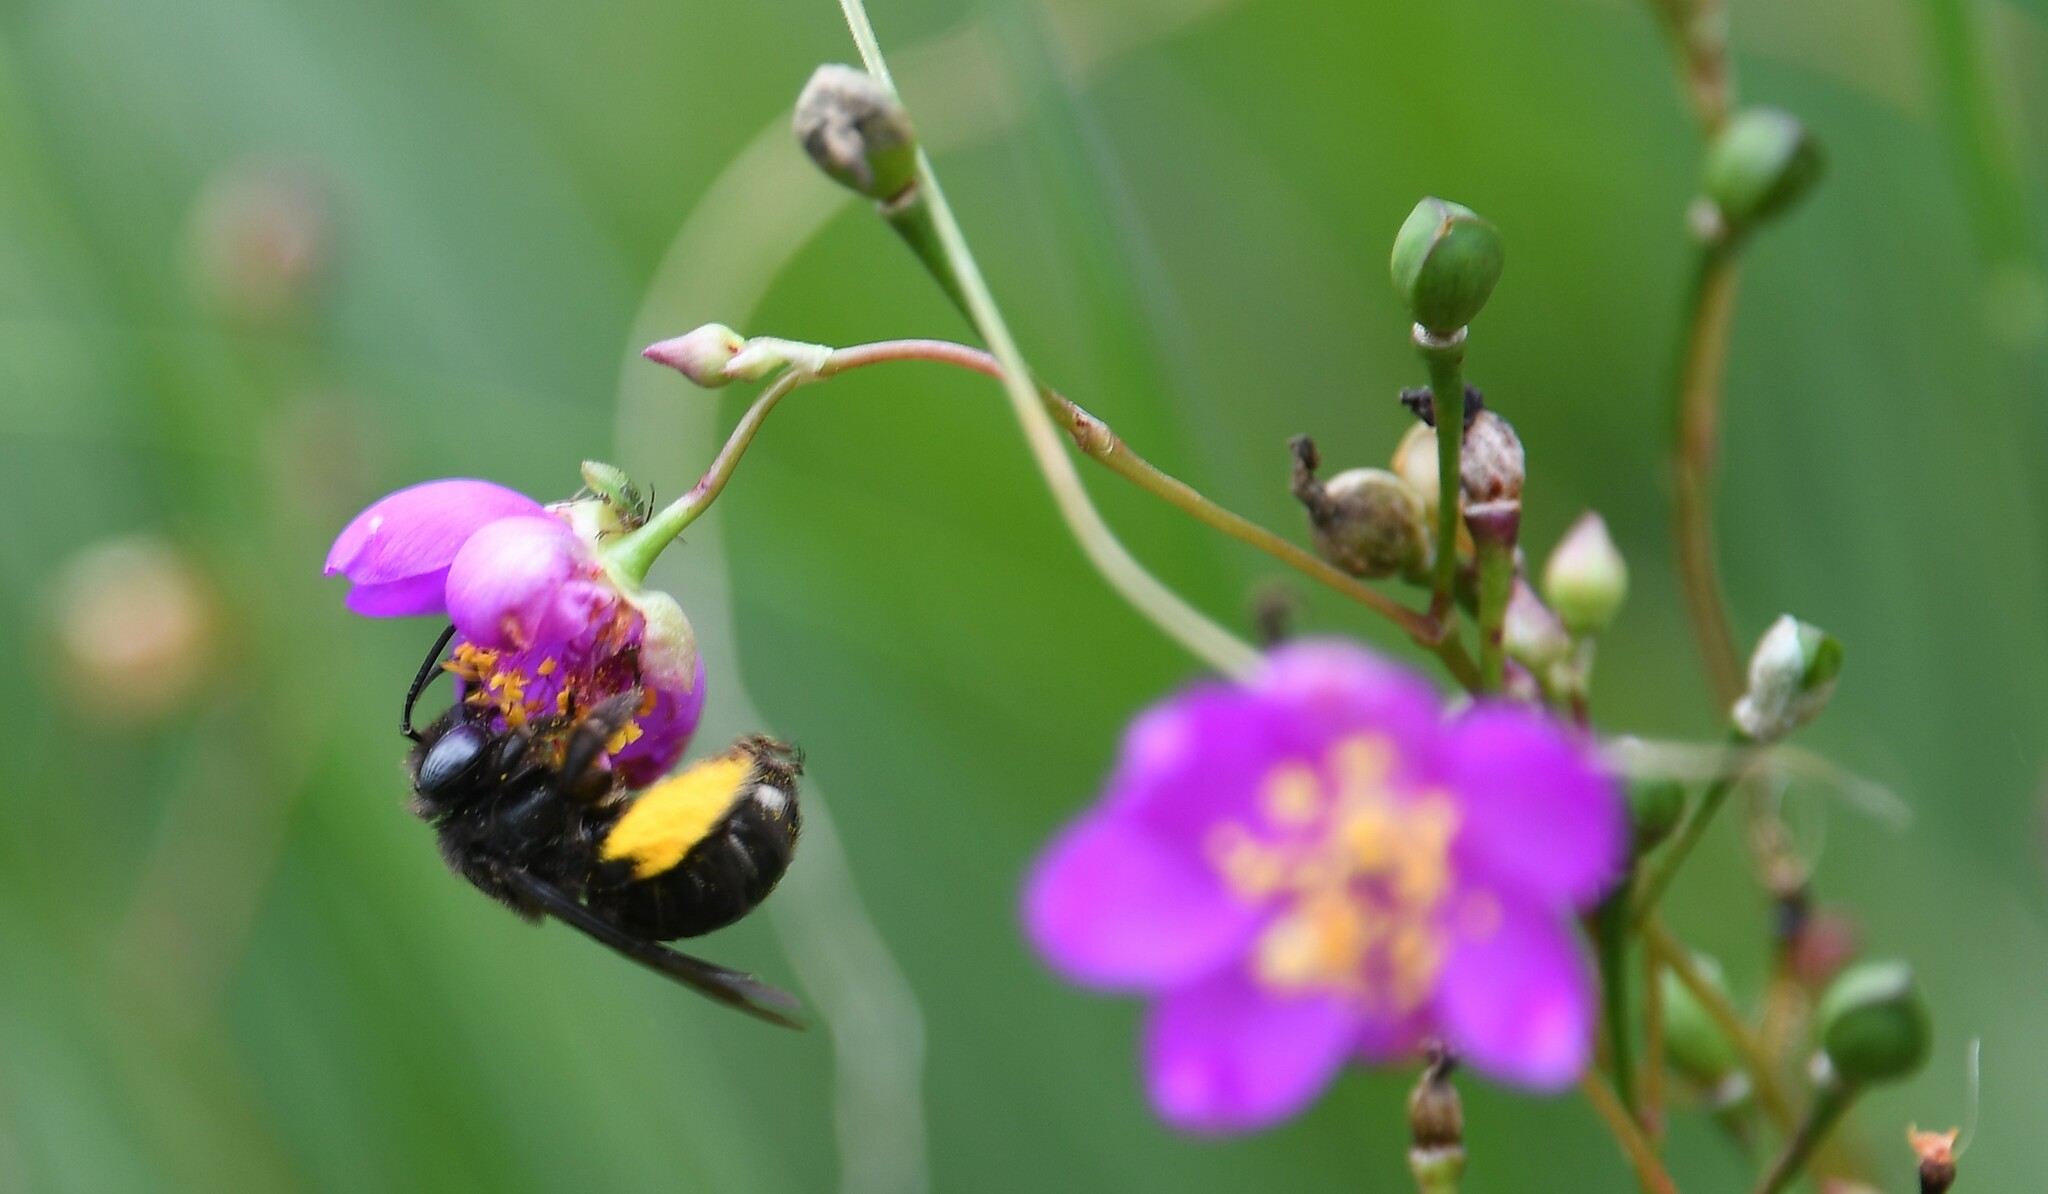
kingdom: Animalia
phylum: Arthropoda
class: Insecta
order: Hymenoptera
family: Apidae
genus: Melissodes
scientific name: Melissodes bimaculatus
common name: Two-spotted long-horned bee
